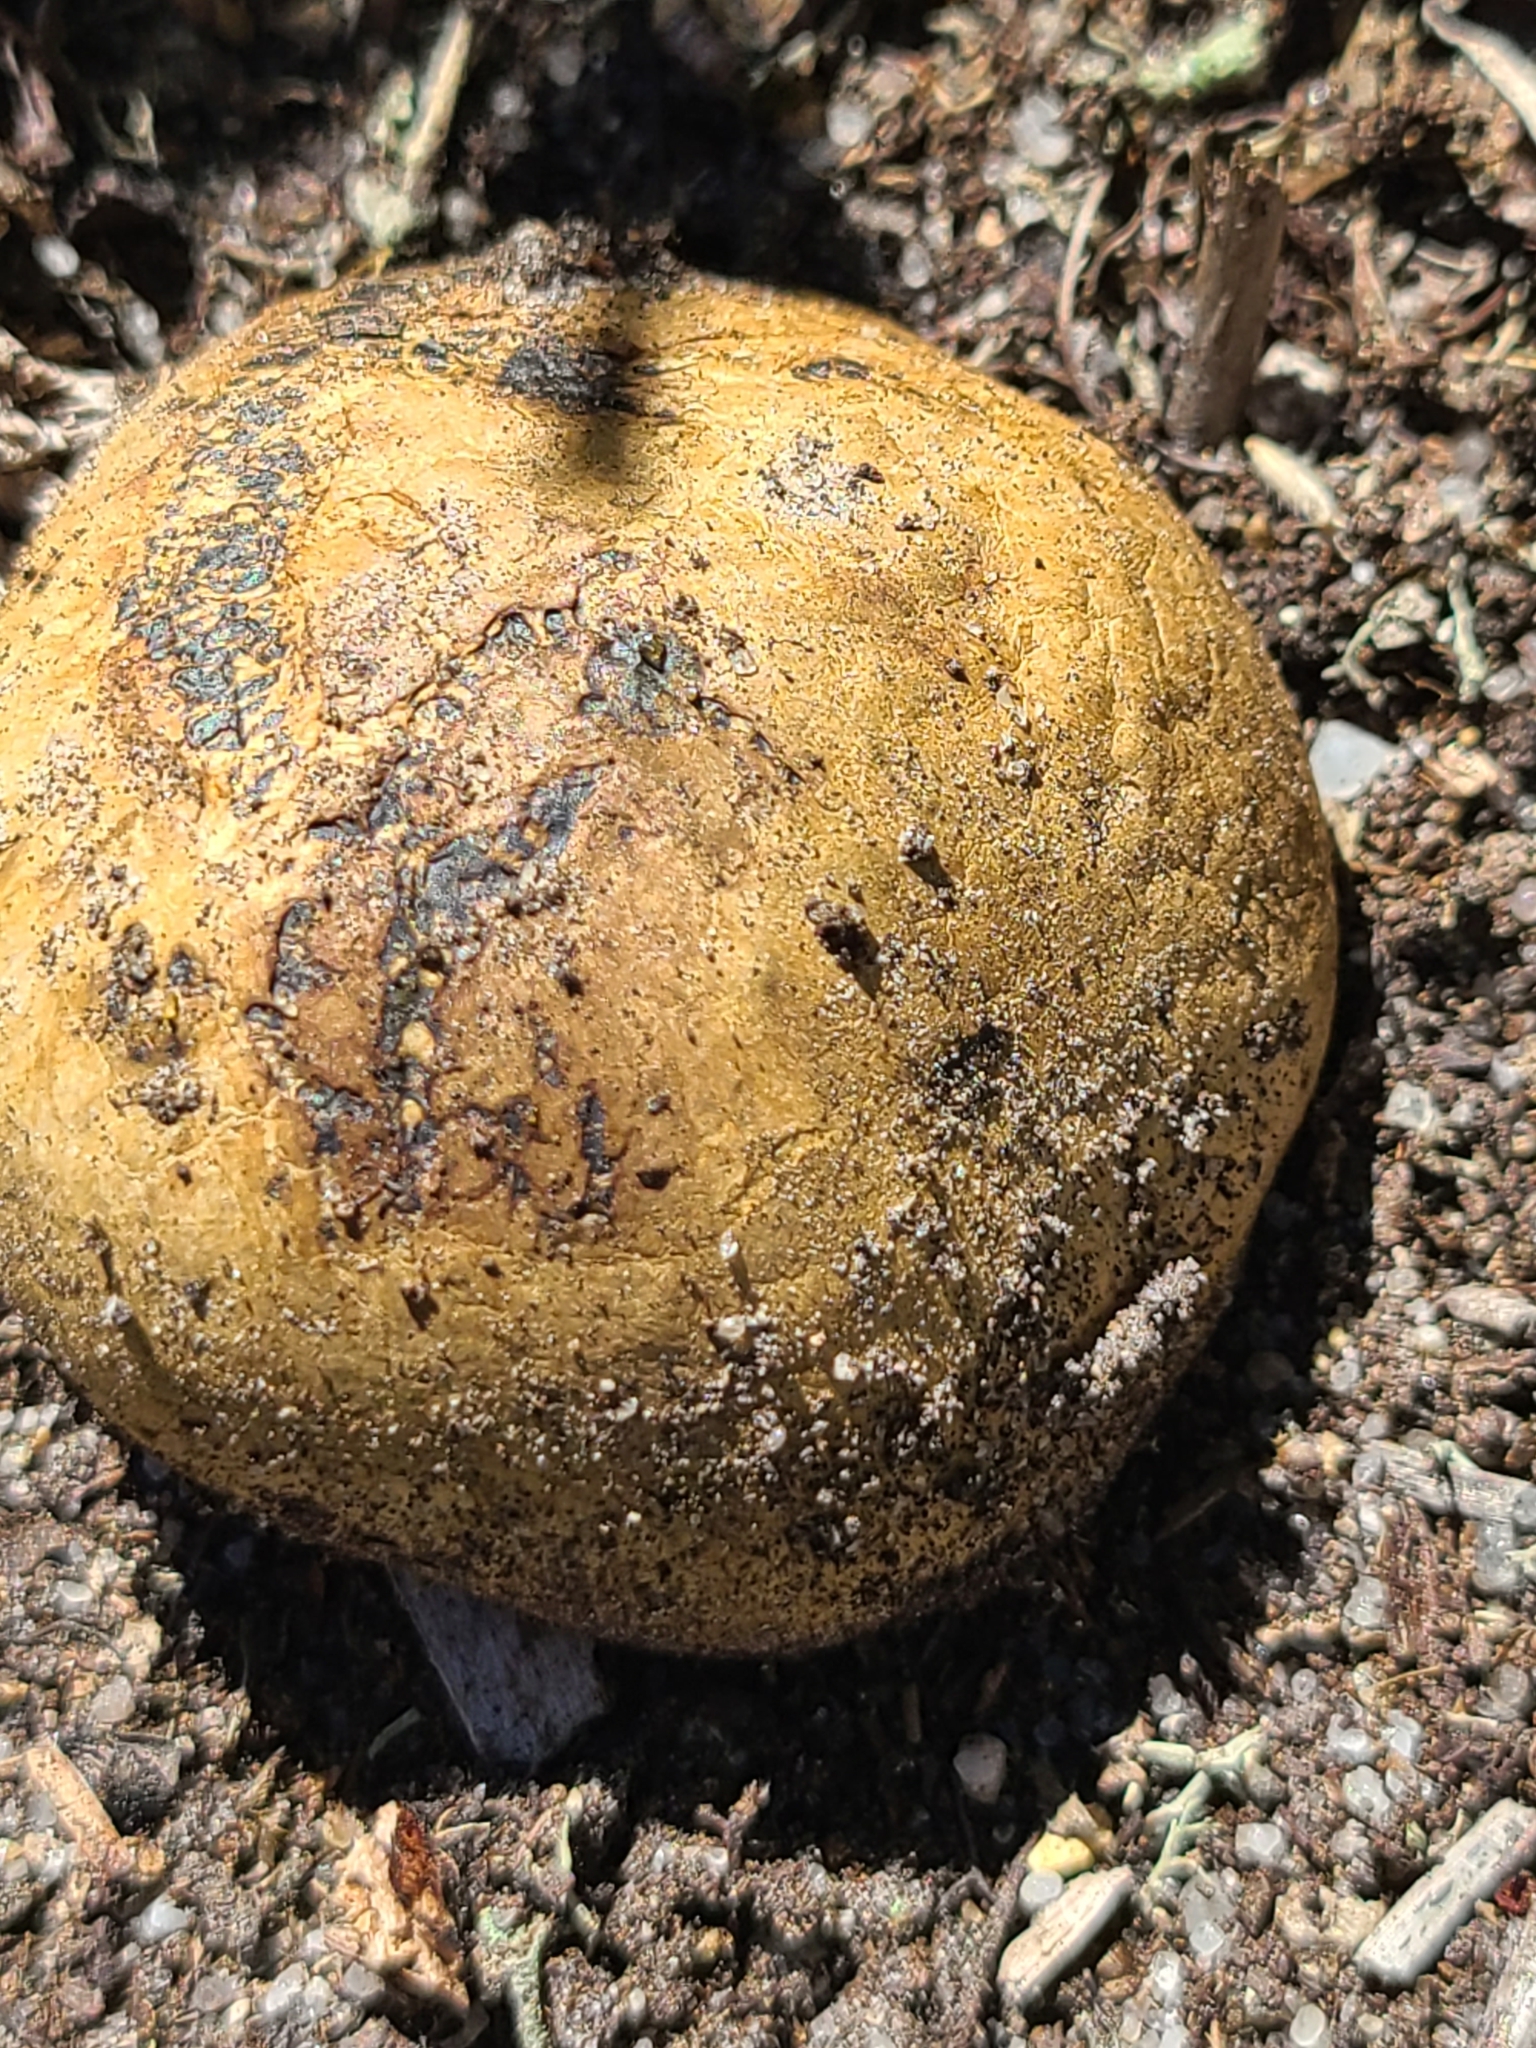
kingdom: Fungi
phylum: Basidiomycota
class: Agaricomycetes
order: Boletales
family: Sclerodermataceae
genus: Pisolithus
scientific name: Pisolithus tinctorius
